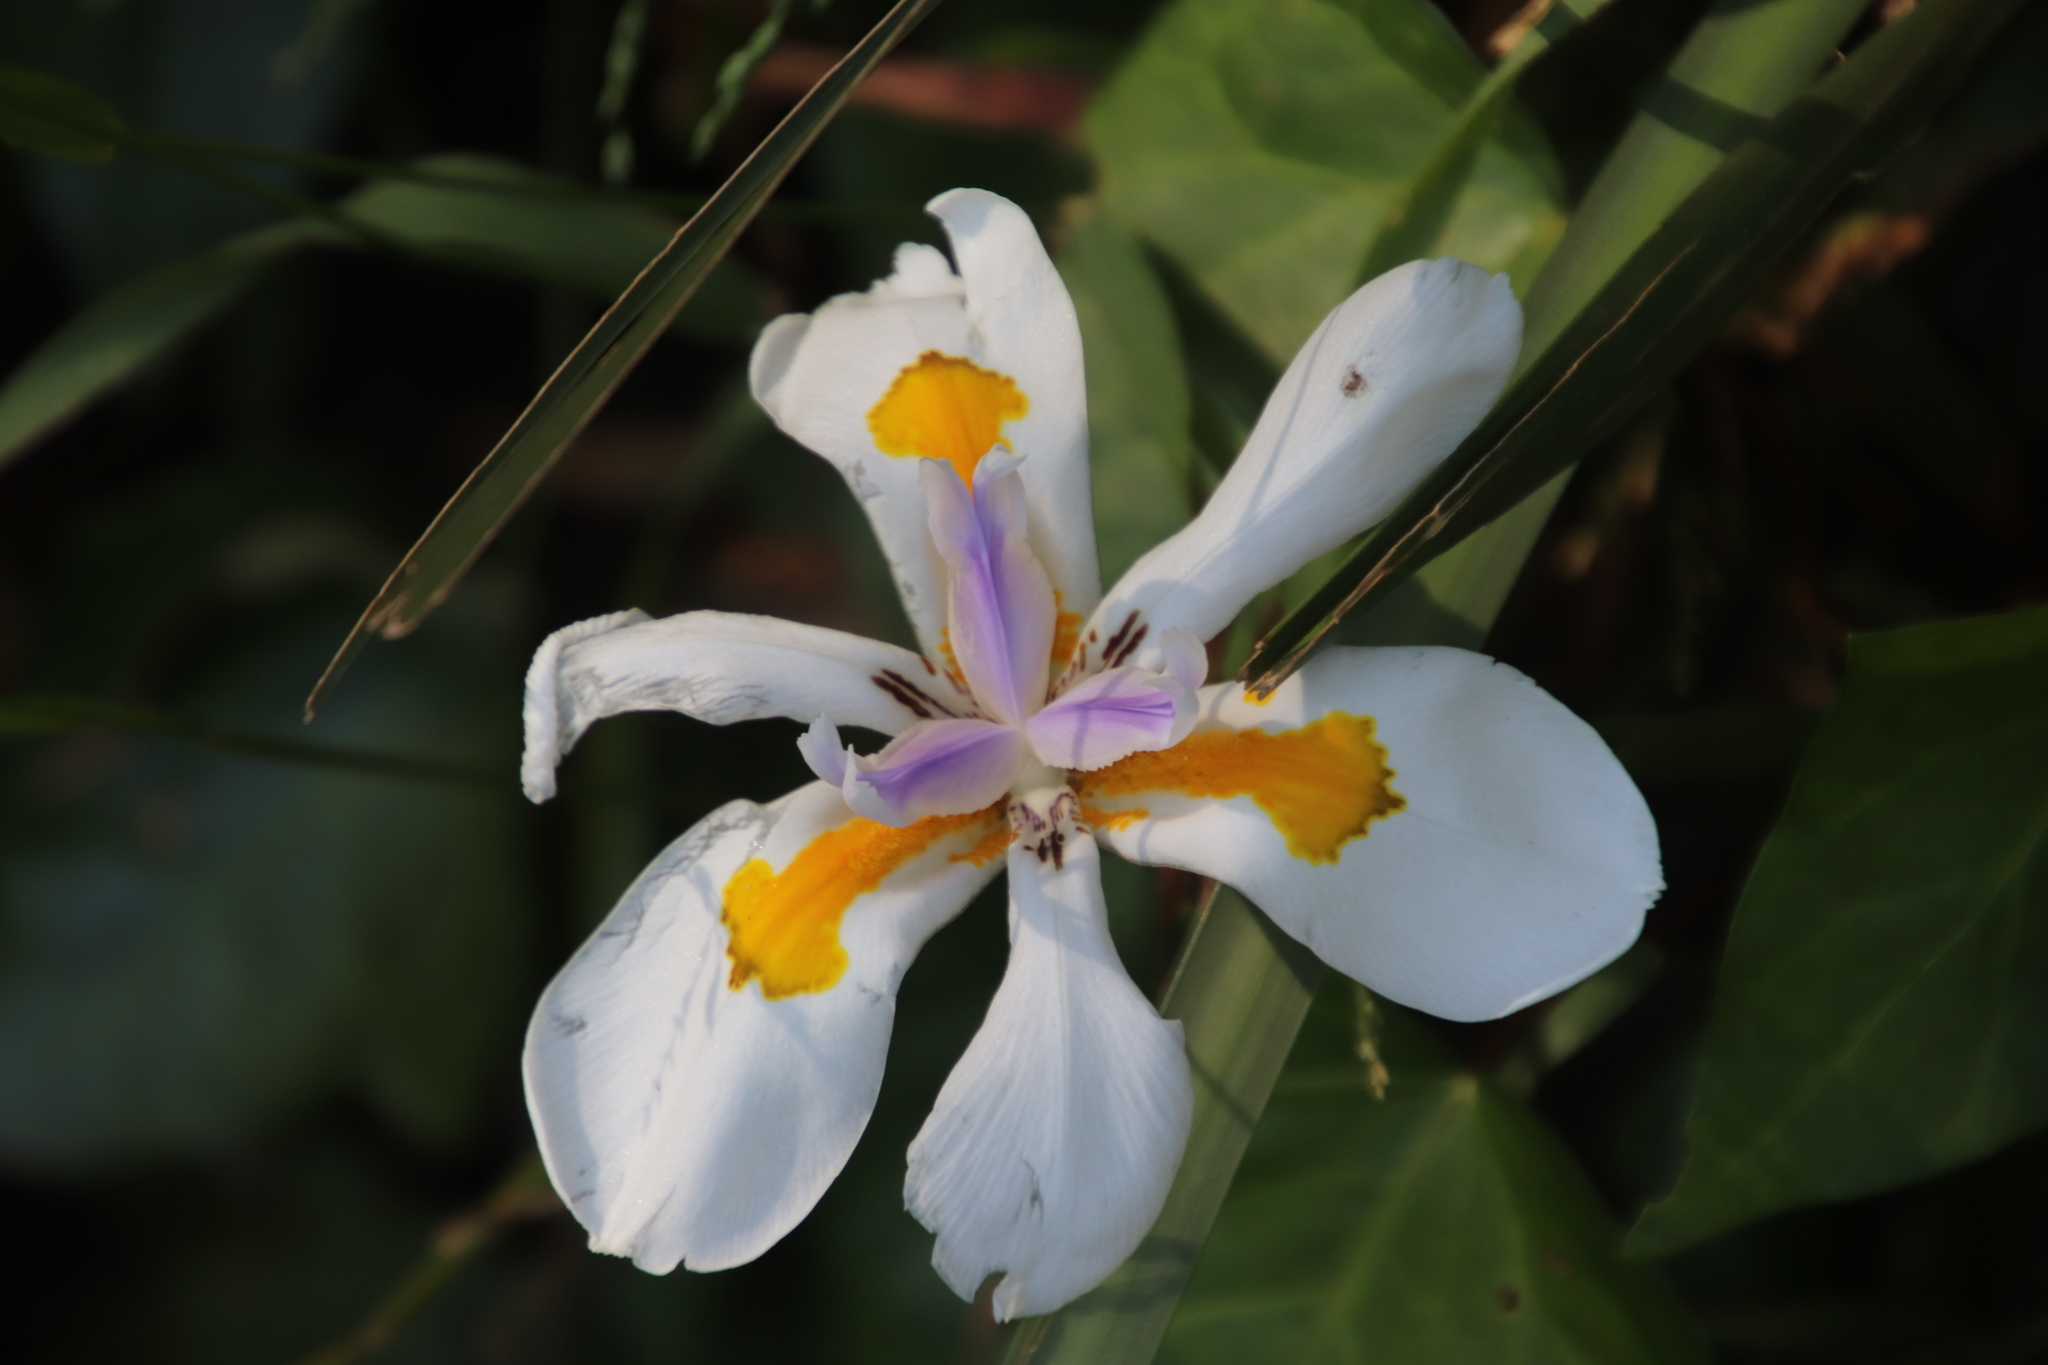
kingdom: Plantae
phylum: Tracheophyta
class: Liliopsida
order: Asparagales
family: Iridaceae
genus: Dietes
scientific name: Dietes grandiflora
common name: Wild iris
